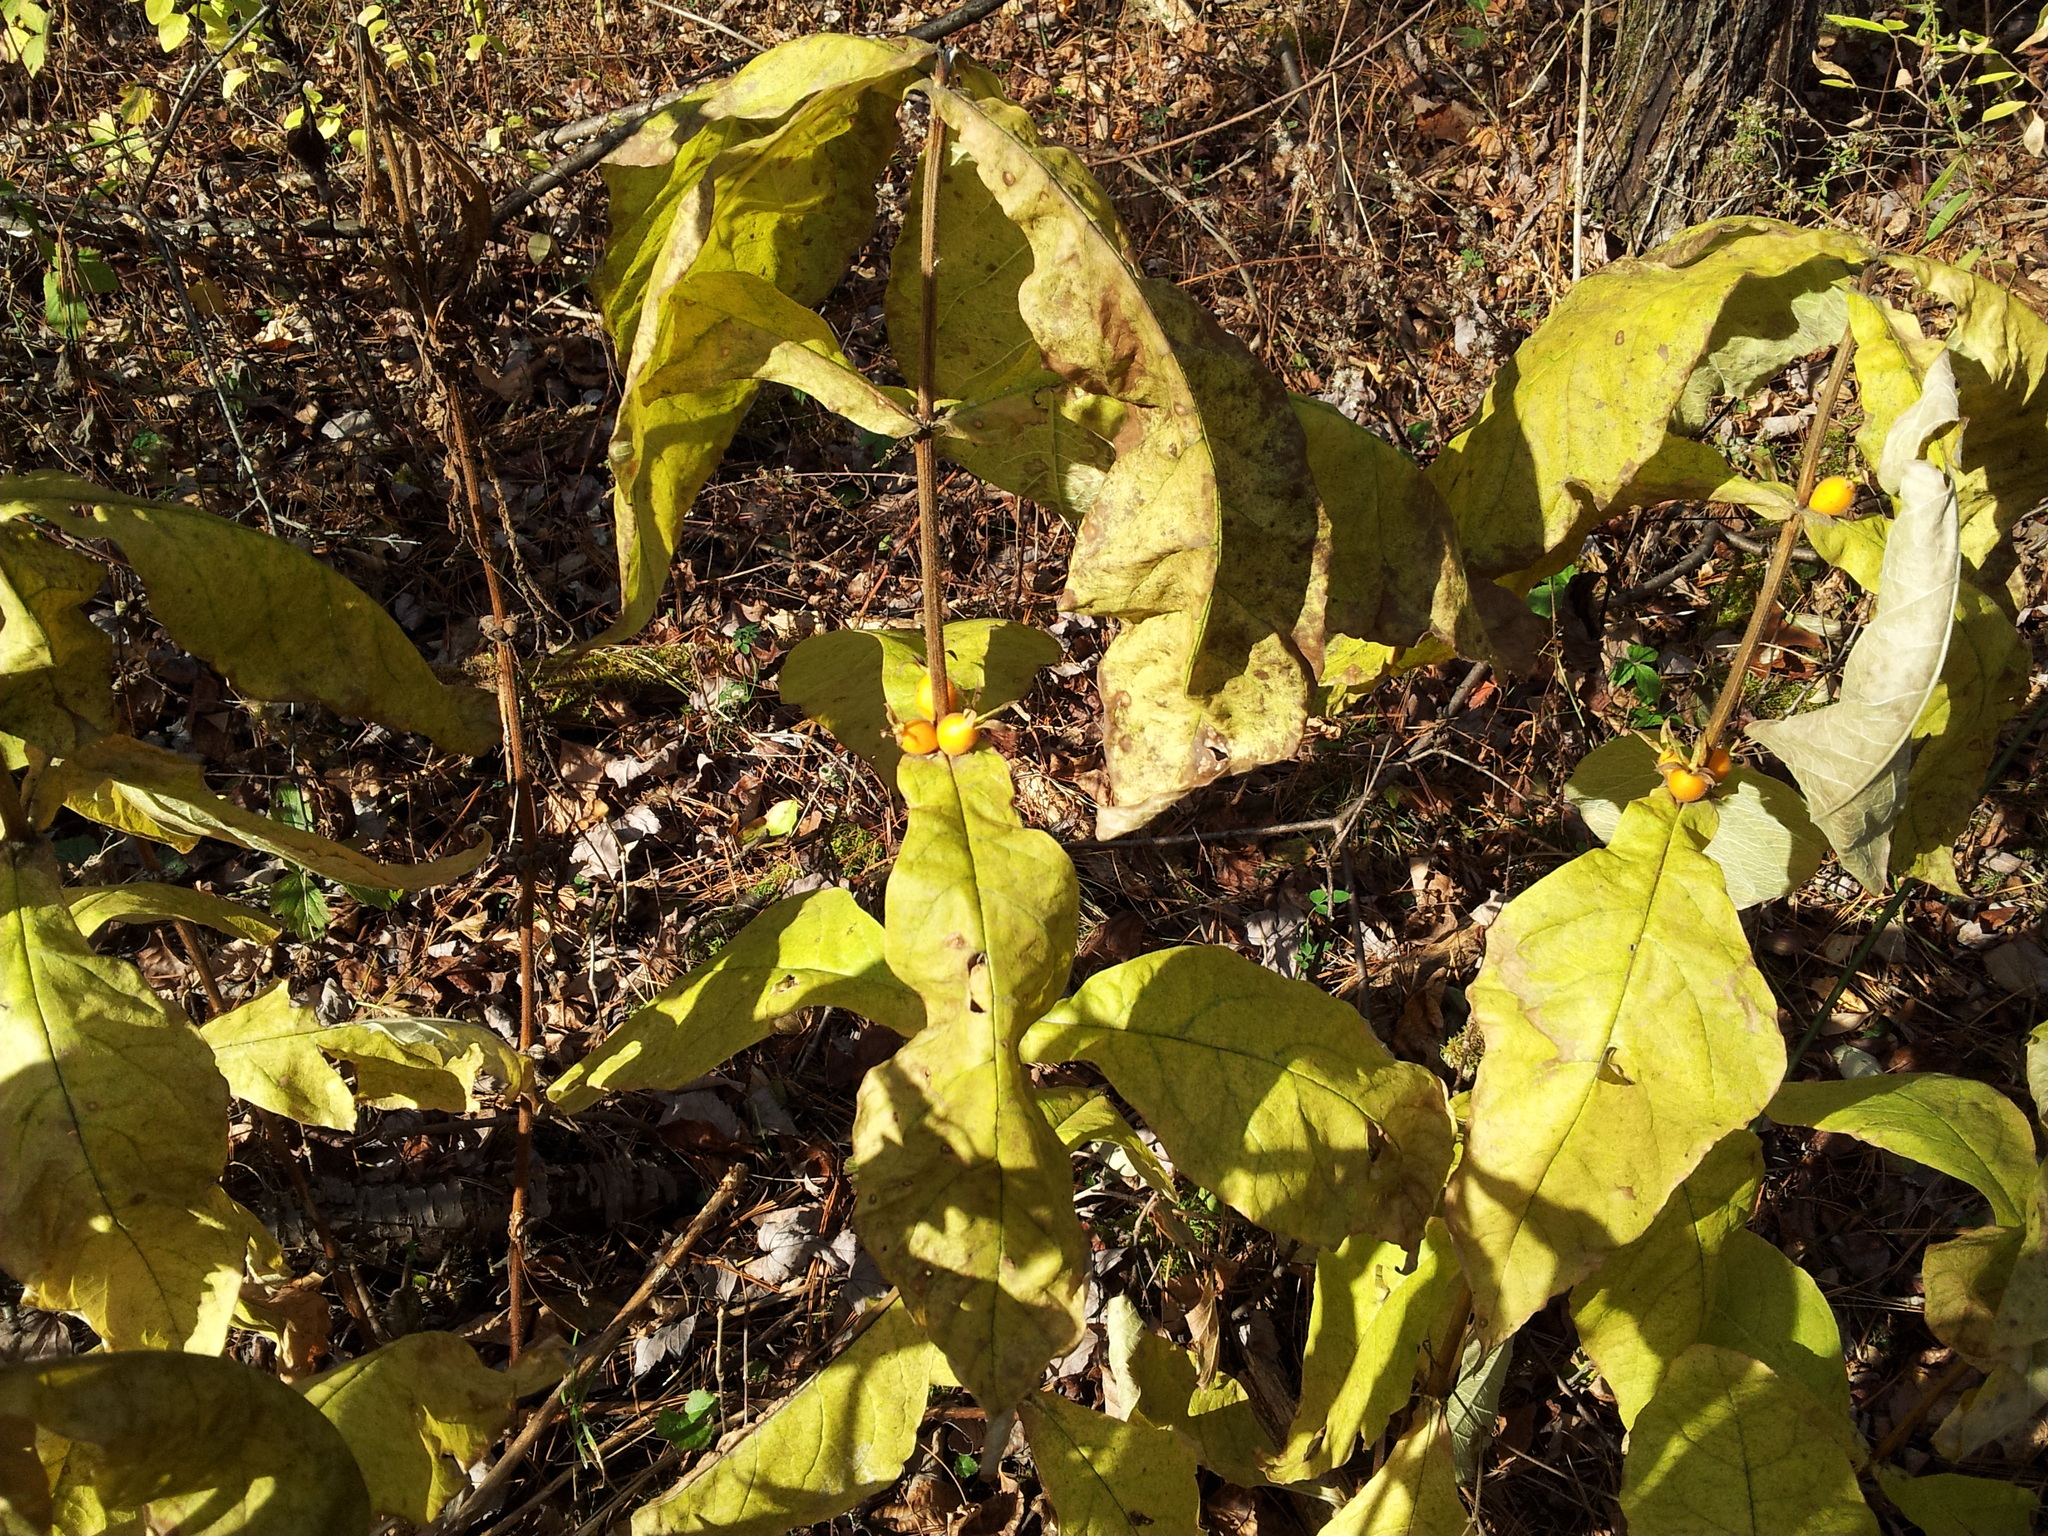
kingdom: Plantae
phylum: Tracheophyta
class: Magnoliopsida
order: Dipsacales
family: Caprifoliaceae
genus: Triosteum
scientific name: Triosteum aurantiacum
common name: Coffee tinker's-weed
